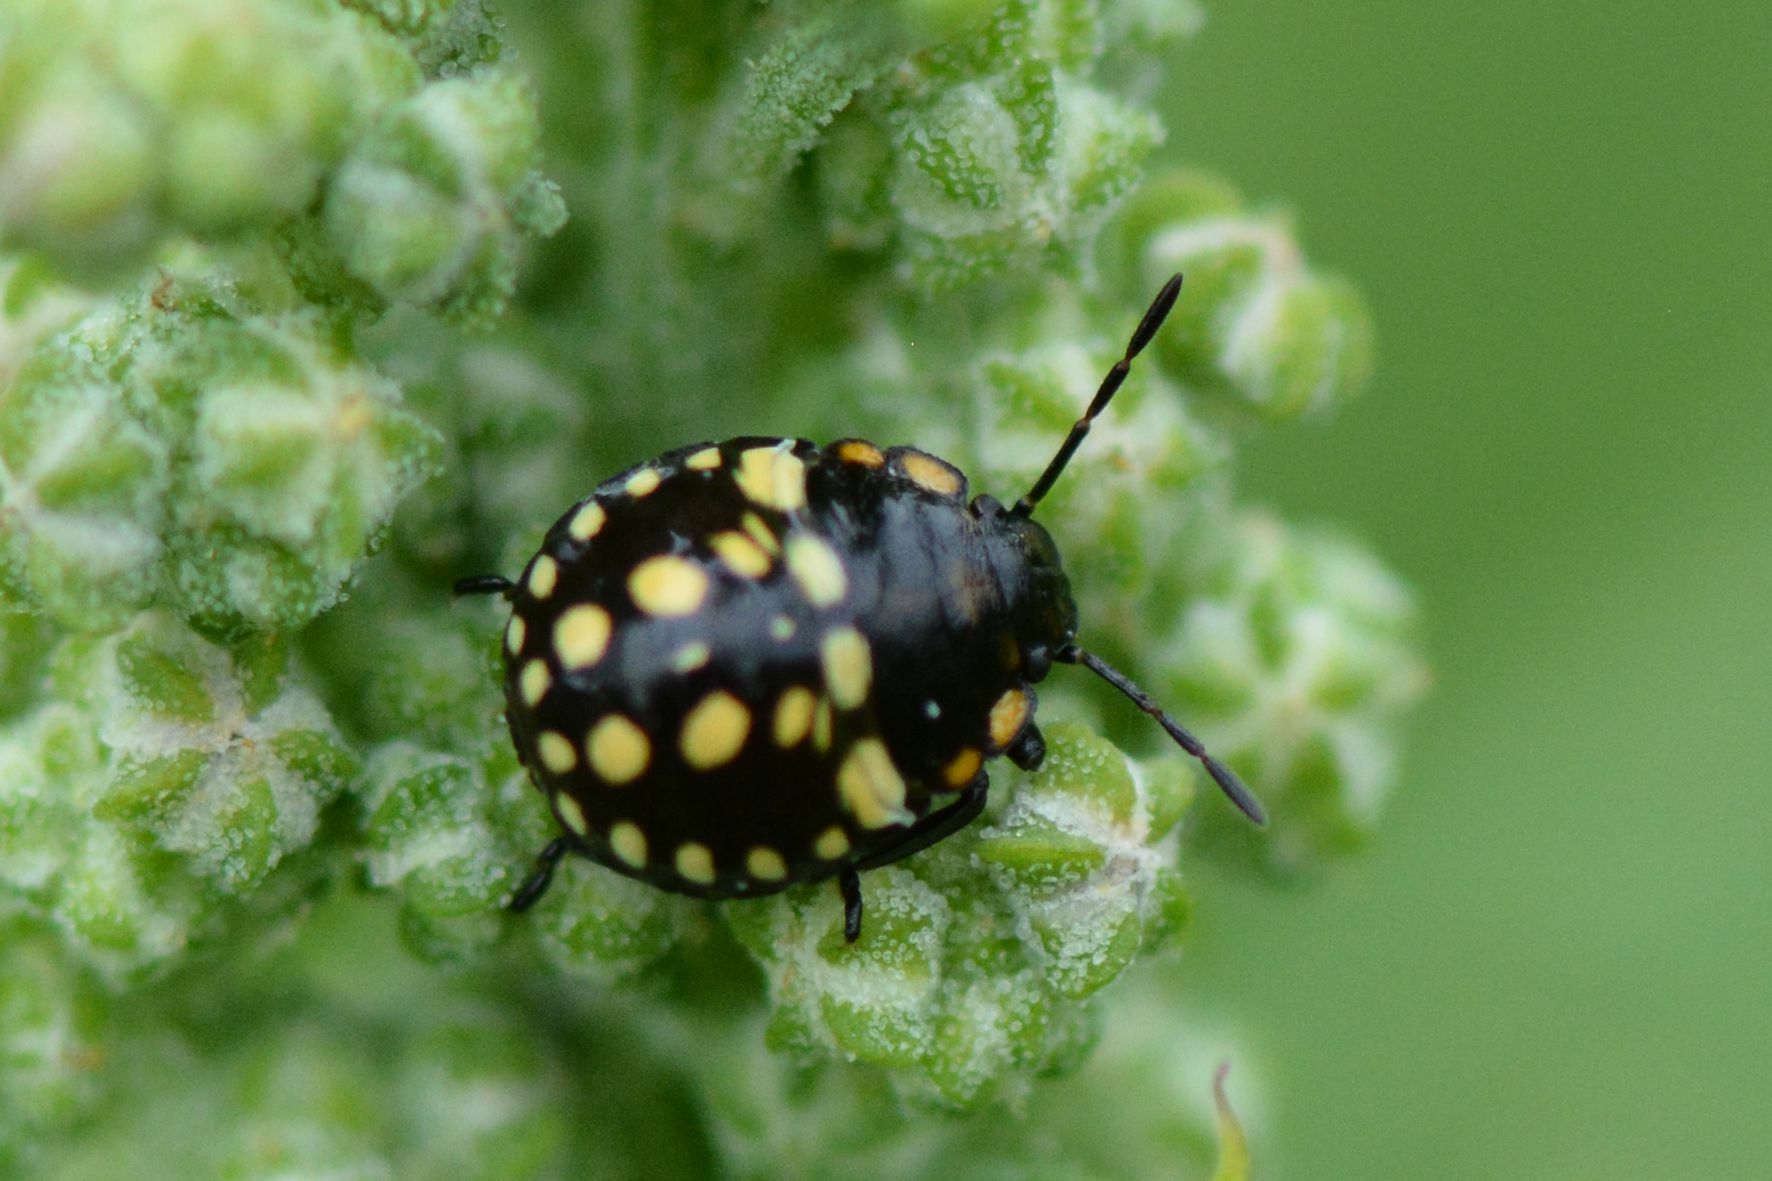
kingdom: Animalia
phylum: Arthropoda
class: Insecta
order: Hemiptera
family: Pentatomidae
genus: Nezara
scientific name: Nezara viridula
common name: Southern green stink bug
